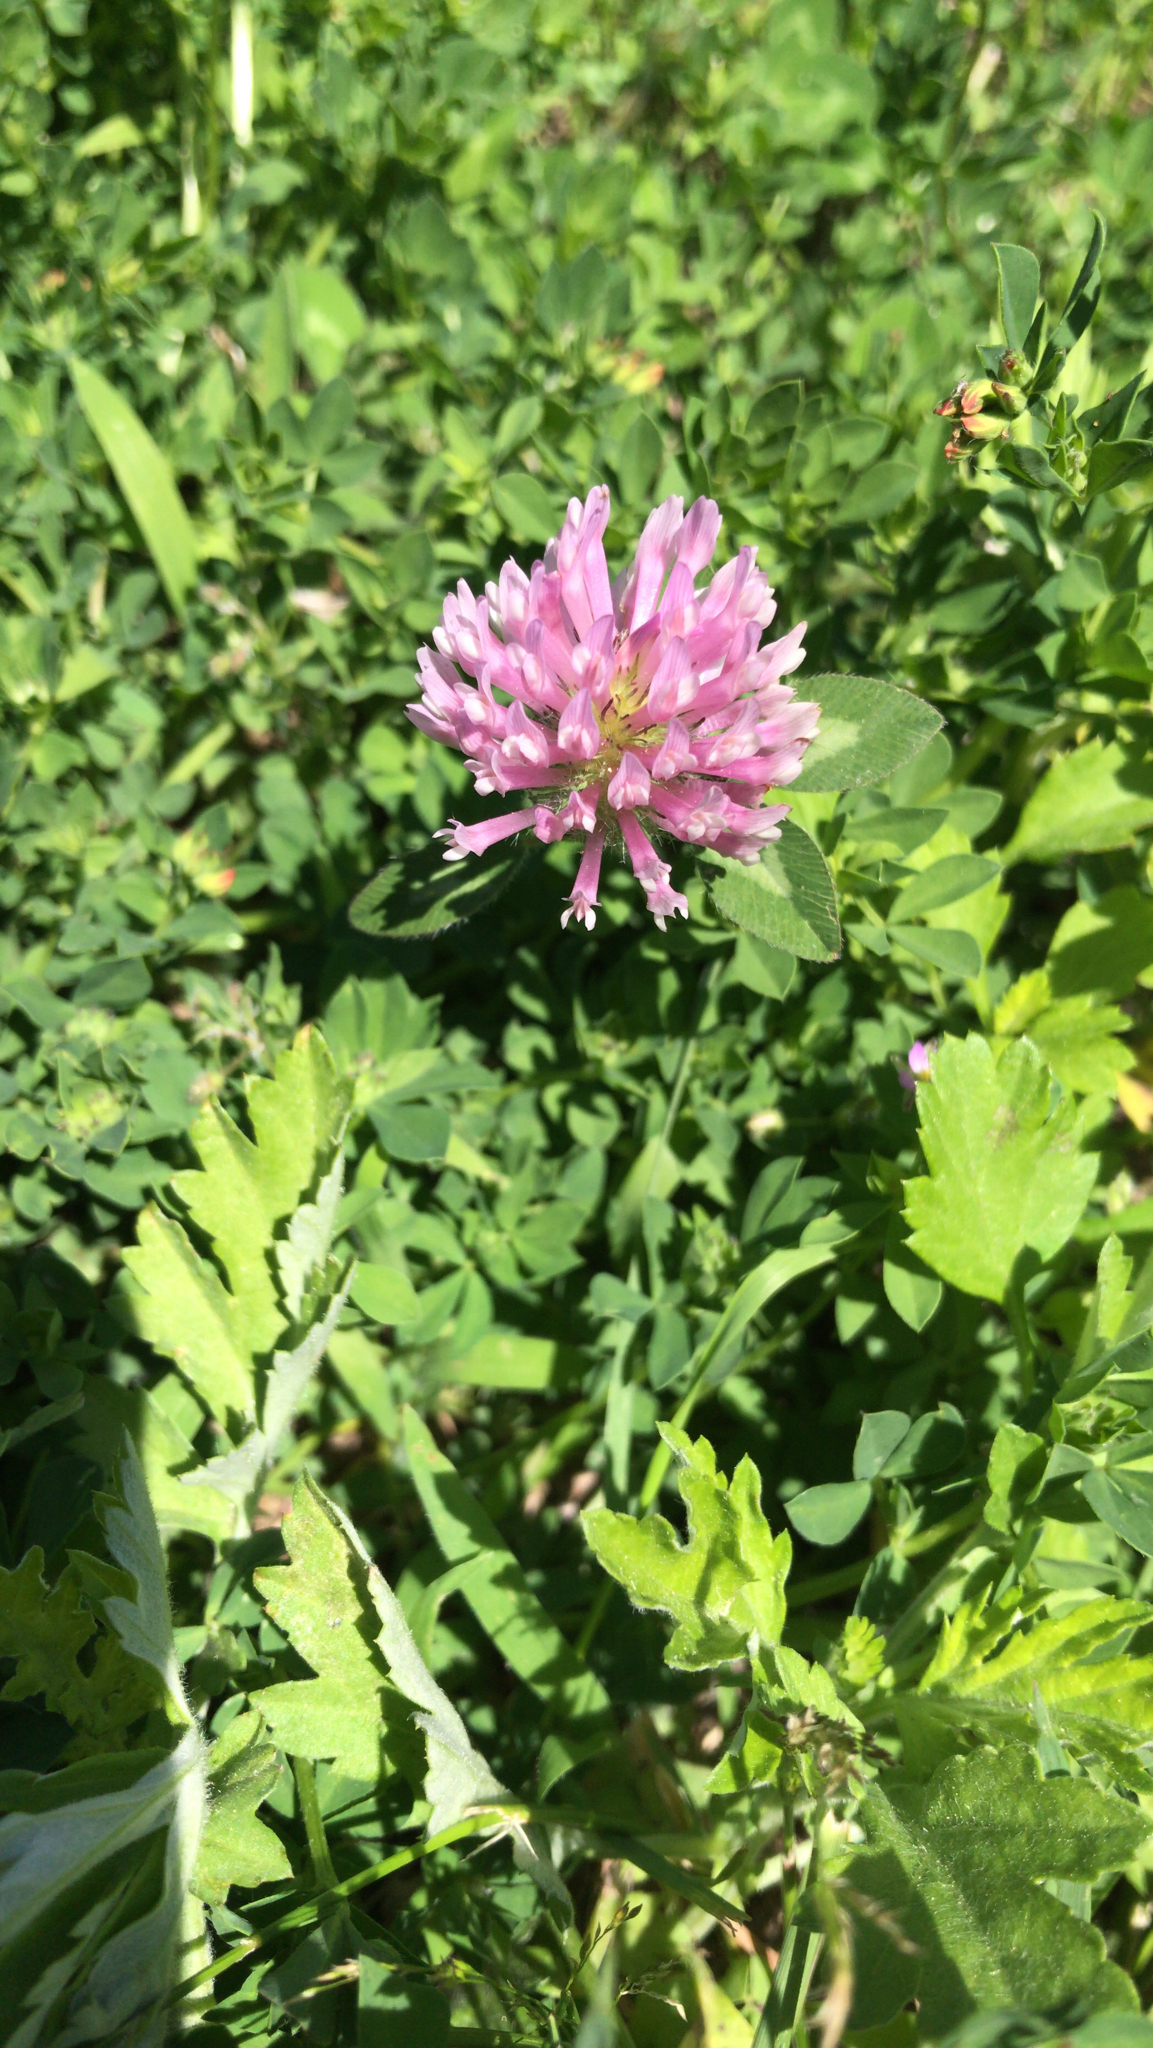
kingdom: Plantae
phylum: Tracheophyta
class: Magnoliopsida
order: Fabales
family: Fabaceae
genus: Trifolium
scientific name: Trifolium pratense
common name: Red clover
